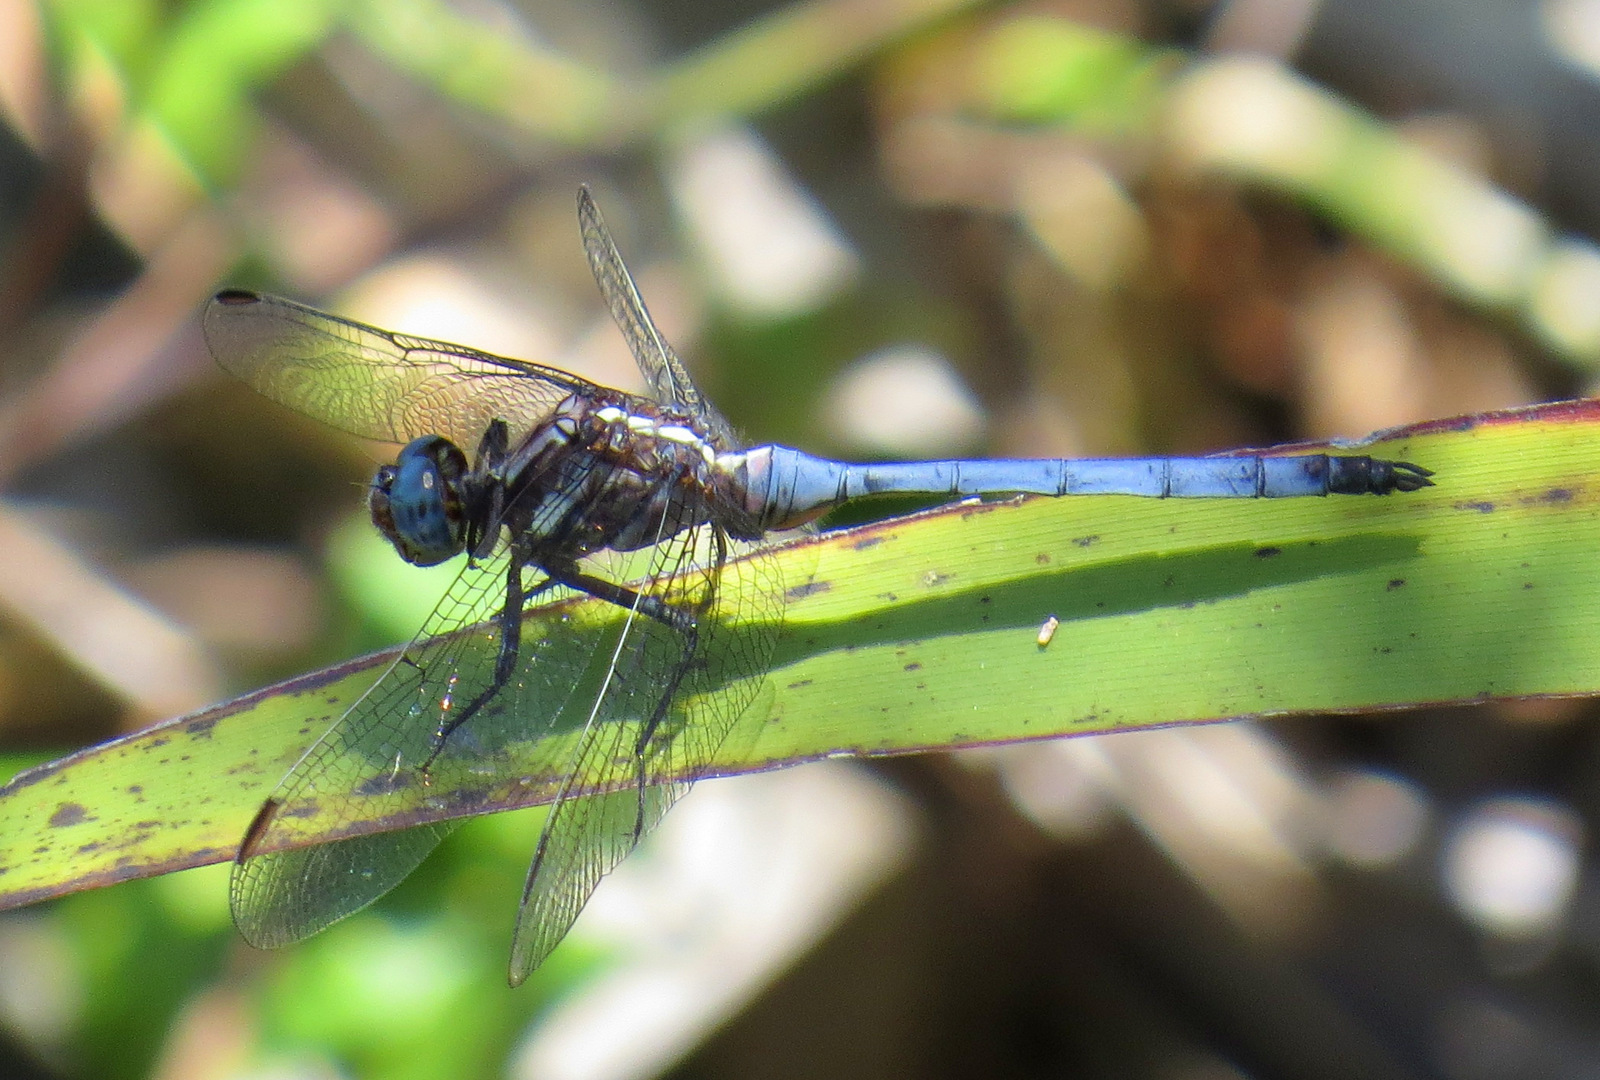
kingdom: Animalia
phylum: Arthropoda
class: Insecta
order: Odonata
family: Libellulidae
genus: Orthetrum
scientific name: Orthetrum julia
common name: Julia skimmer
